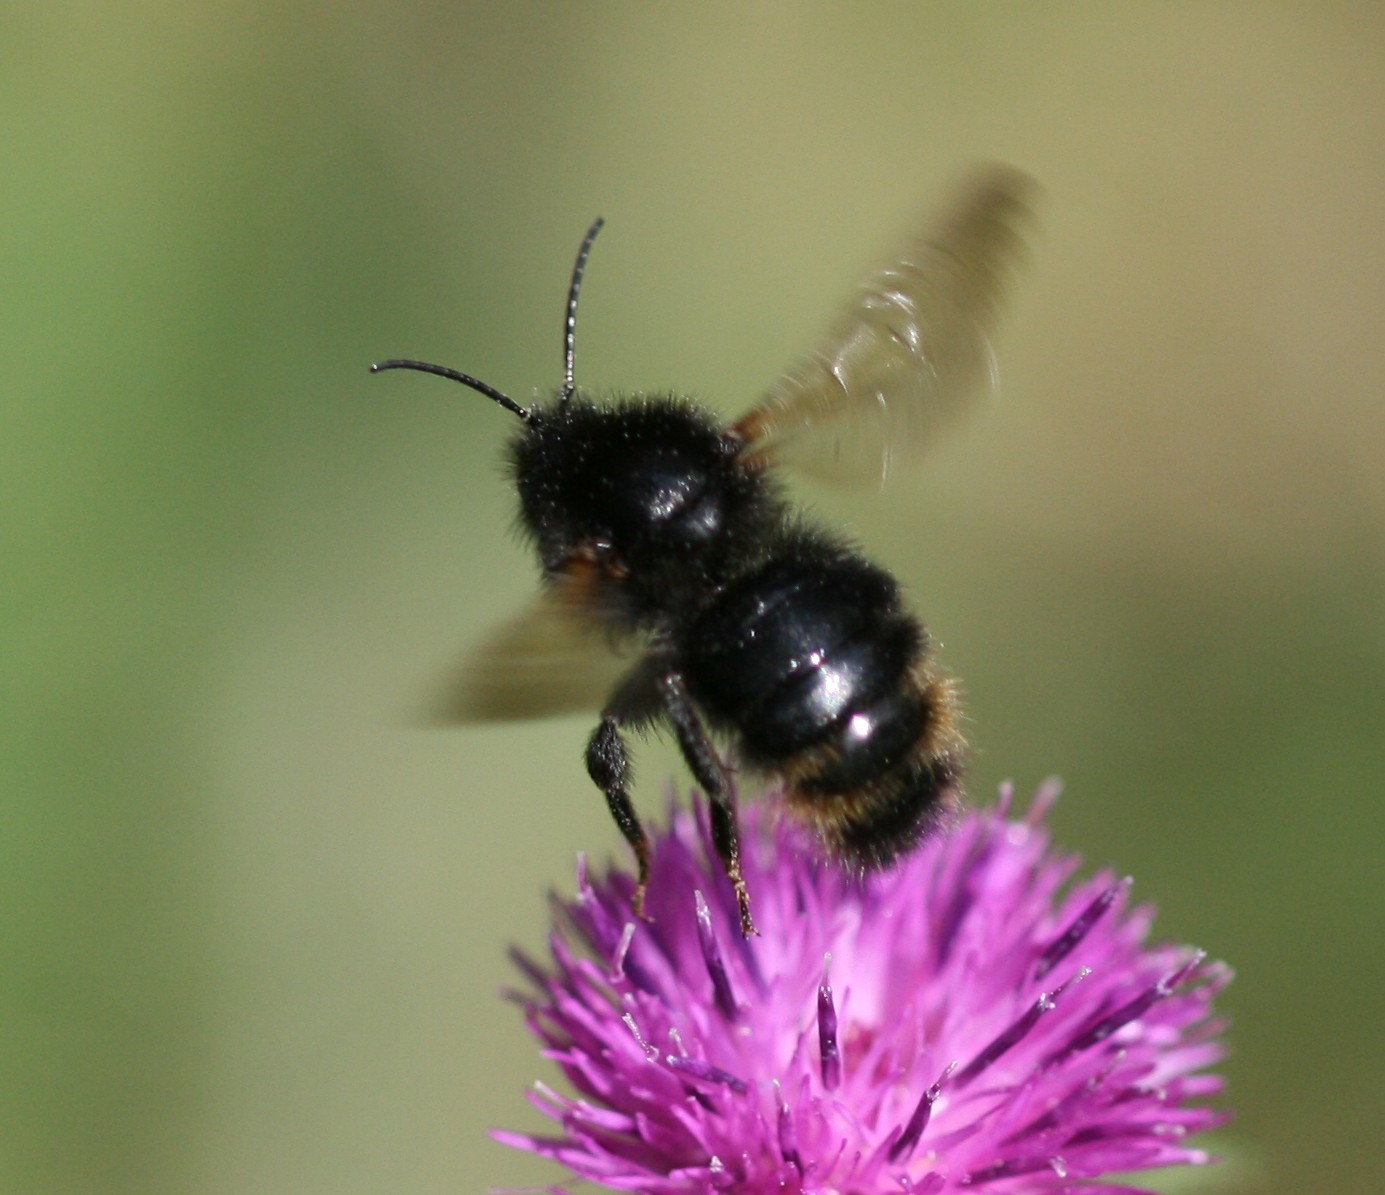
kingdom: Animalia
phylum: Arthropoda
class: Insecta
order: Hymenoptera
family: Apidae
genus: Bombus
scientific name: Bombus rupestris
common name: Hill cuckoo-bee
